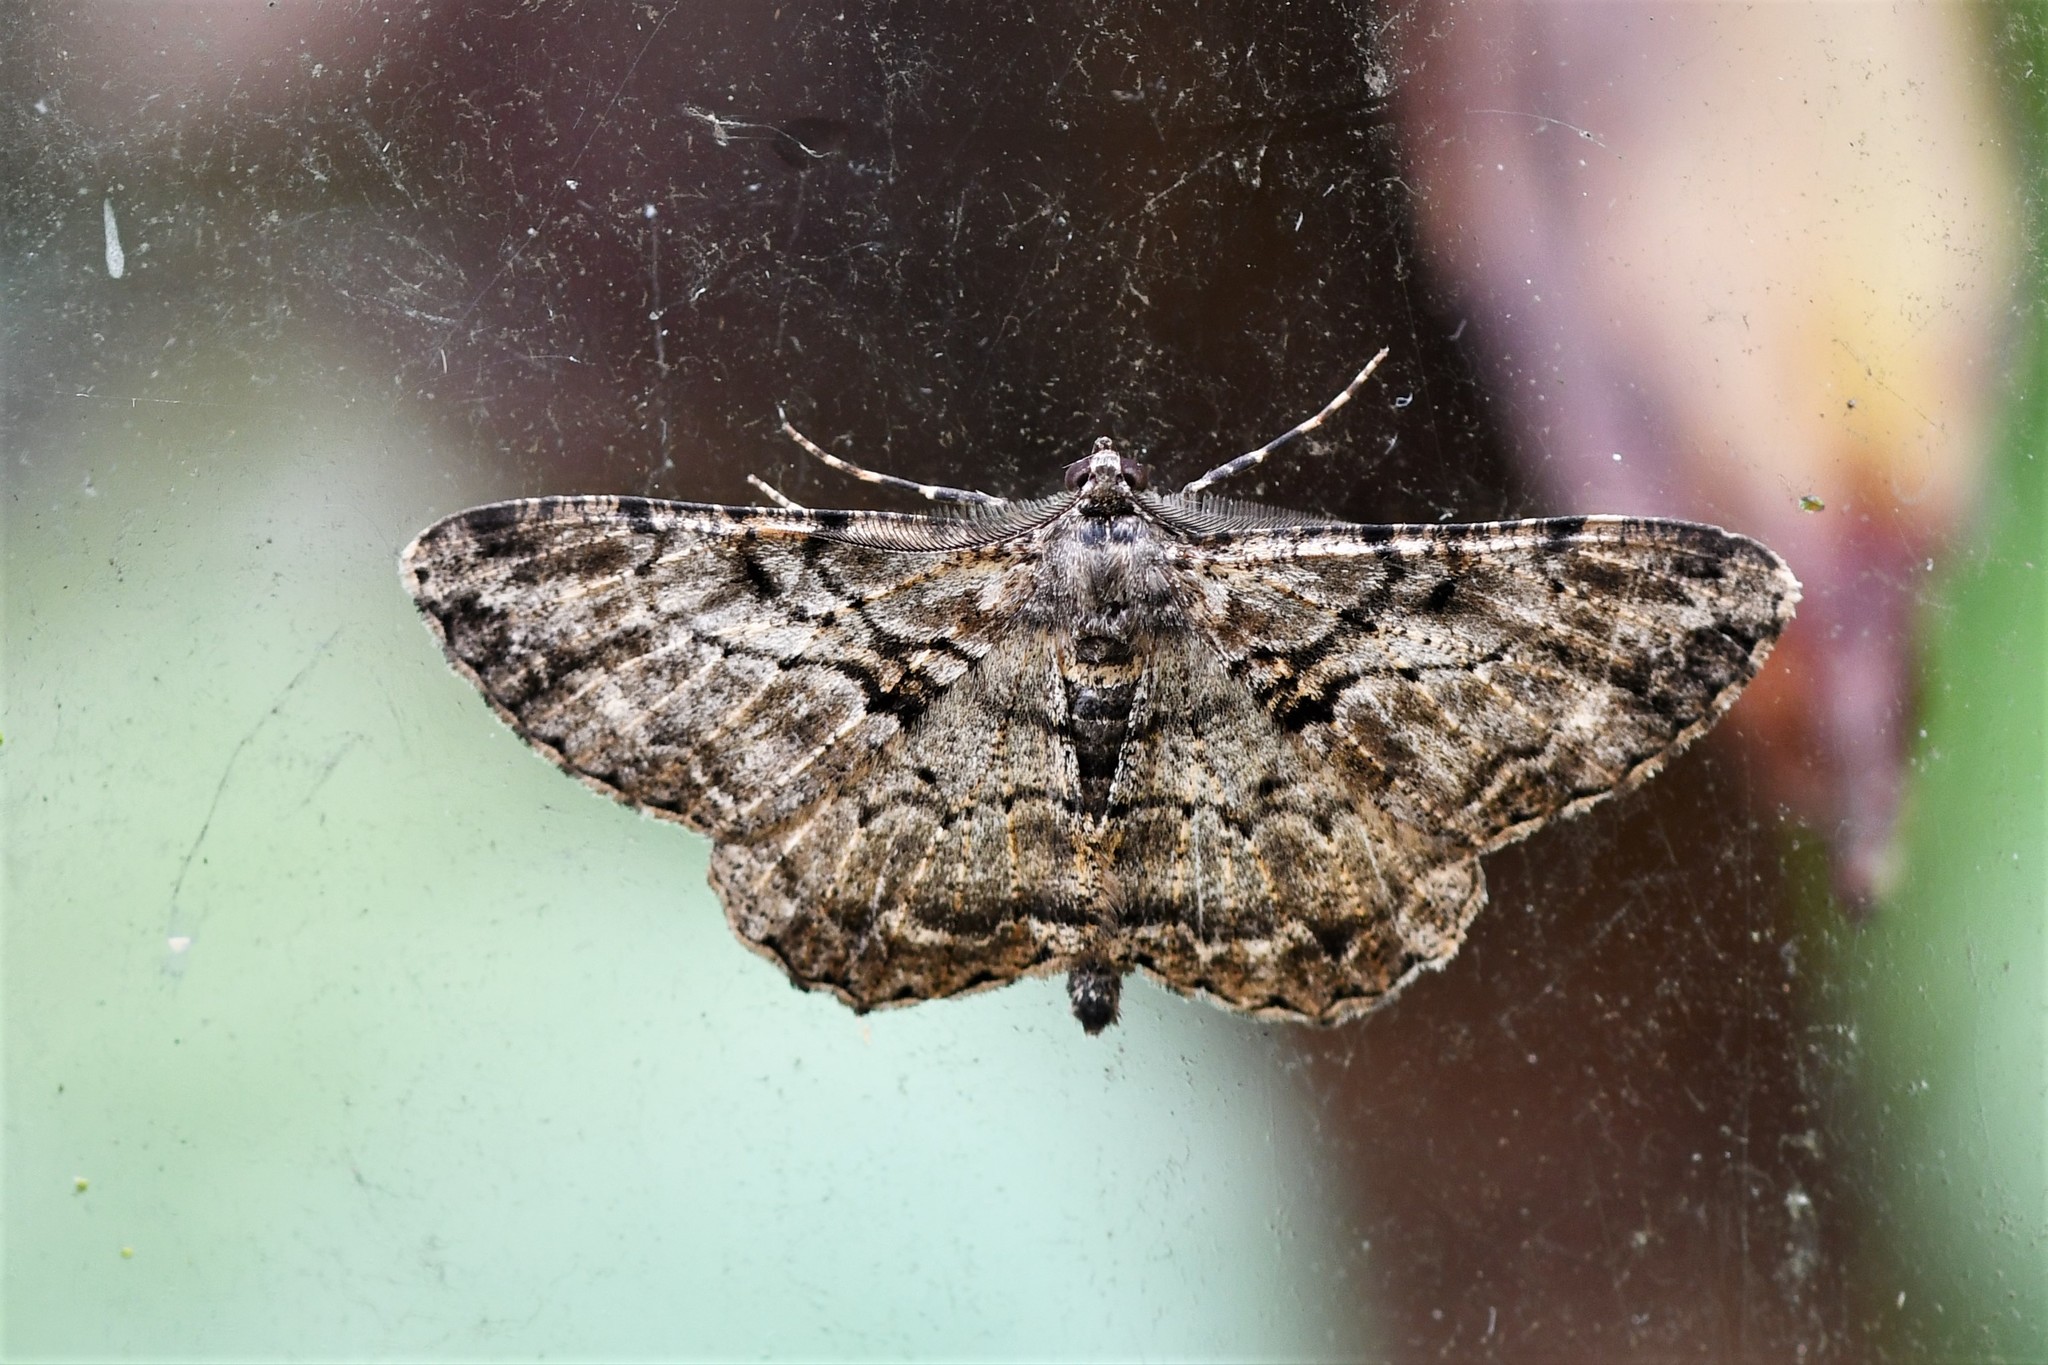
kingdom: Animalia
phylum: Arthropoda
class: Insecta
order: Lepidoptera
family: Geometridae
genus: Peribatodes
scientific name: Peribatodes rhomboidaria
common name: Willow beauty
